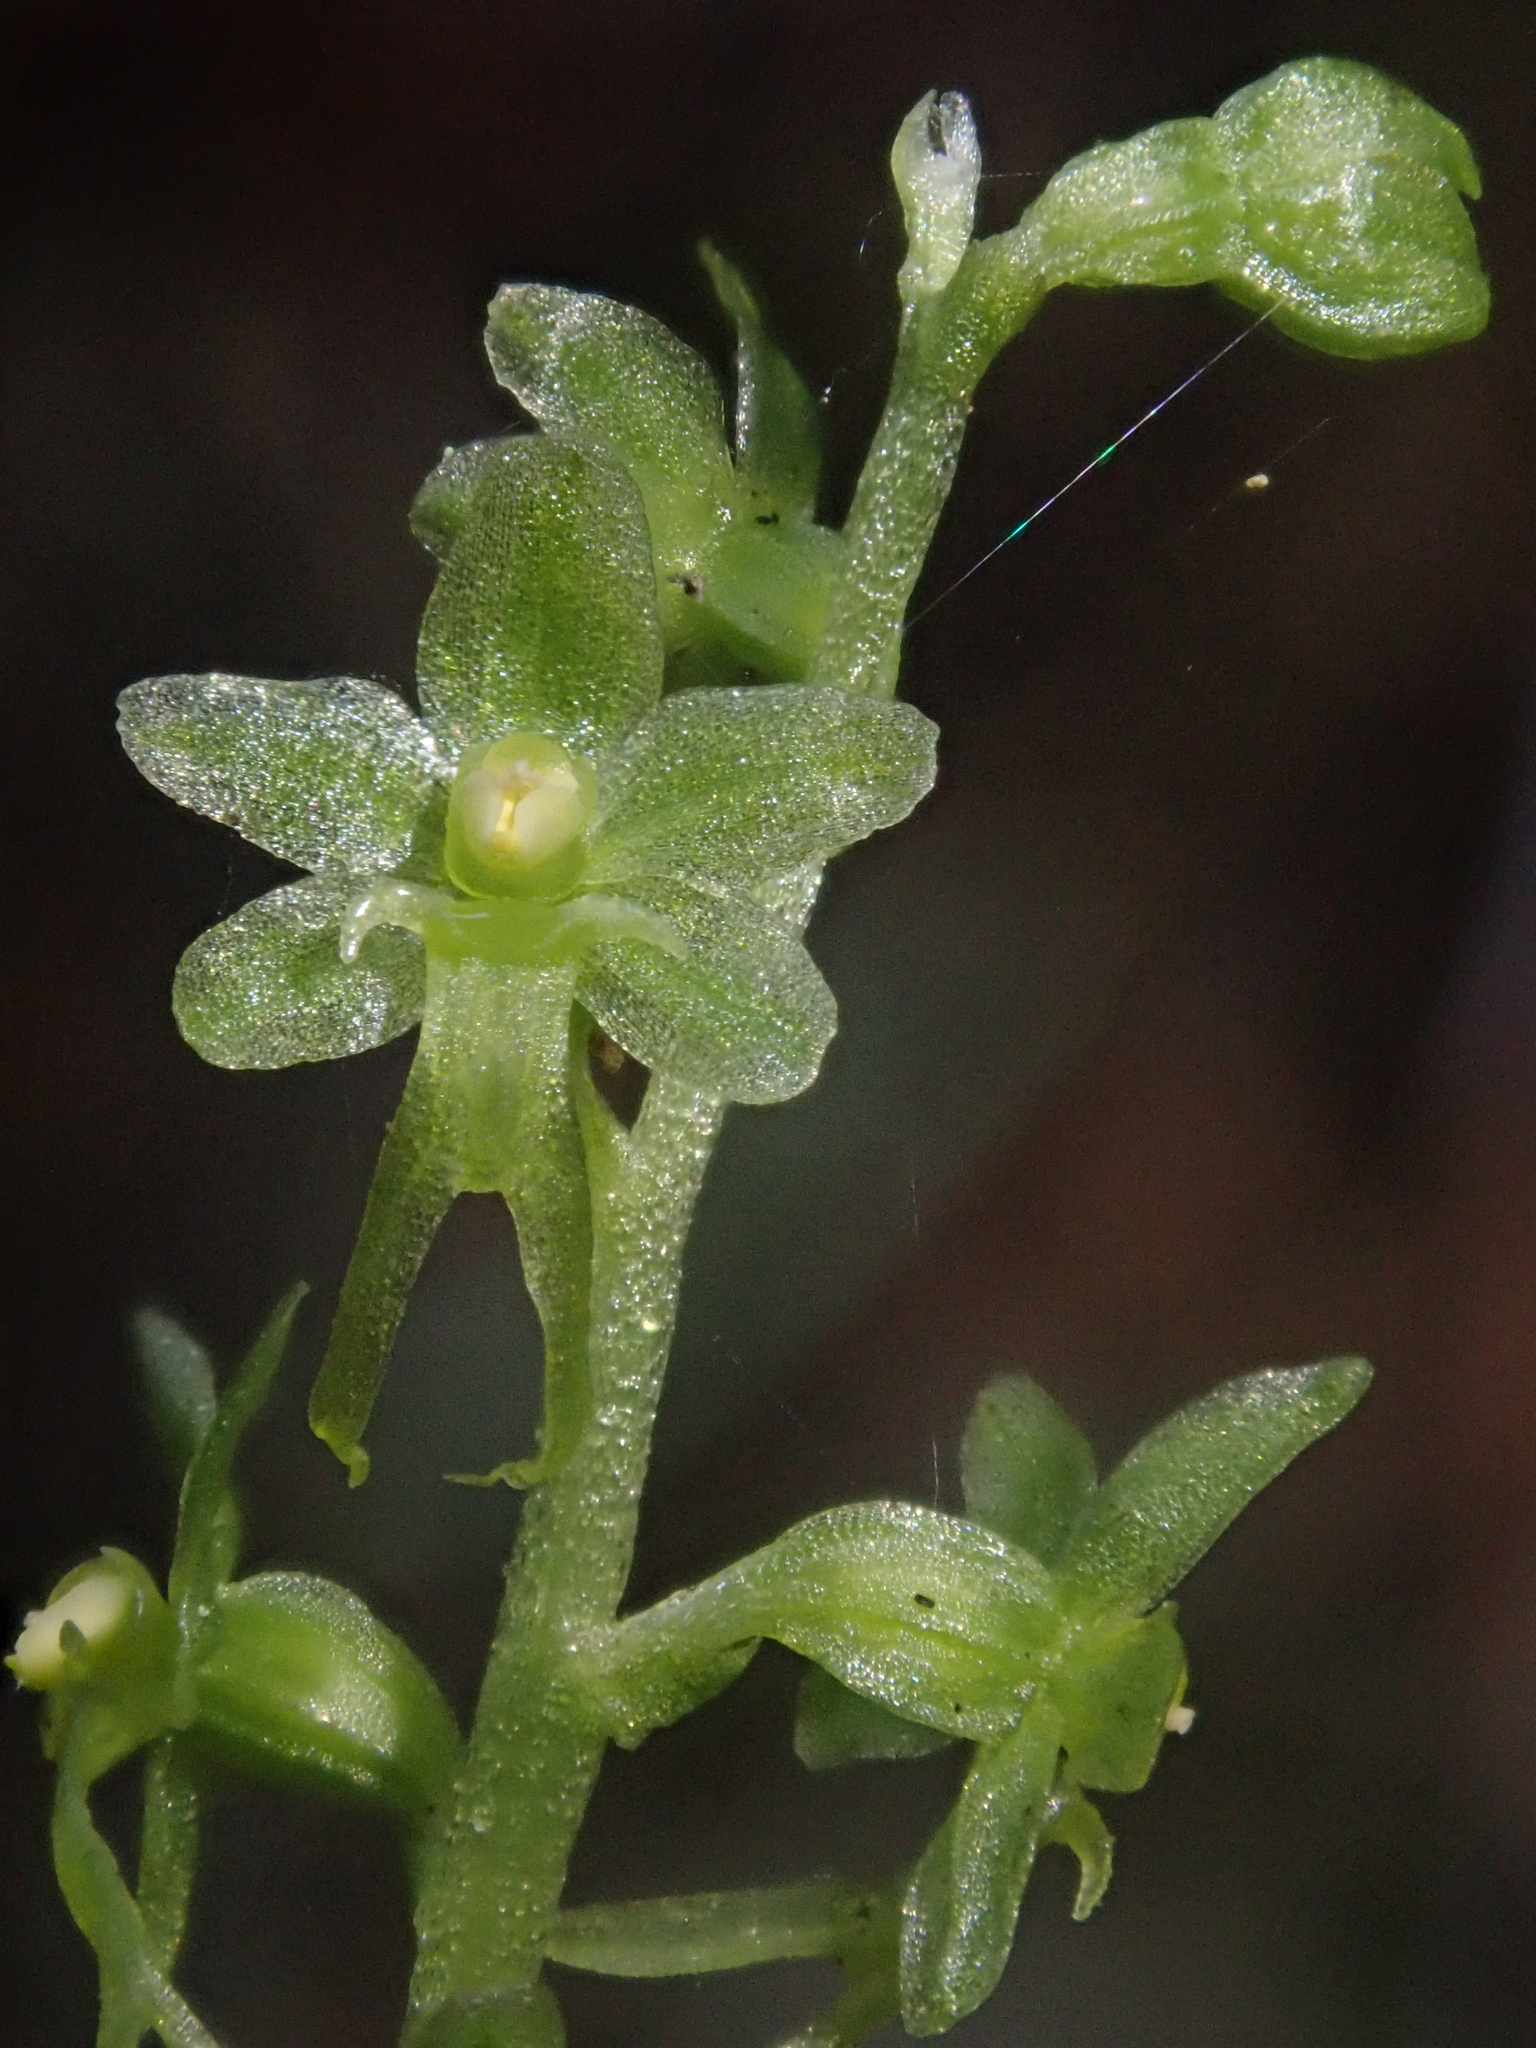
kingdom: Plantae
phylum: Tracheophyta
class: Liliopsida
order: Asparagales
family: Orchidaceae
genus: Neottia
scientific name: Neottia cordata
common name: Lesser twayblade
